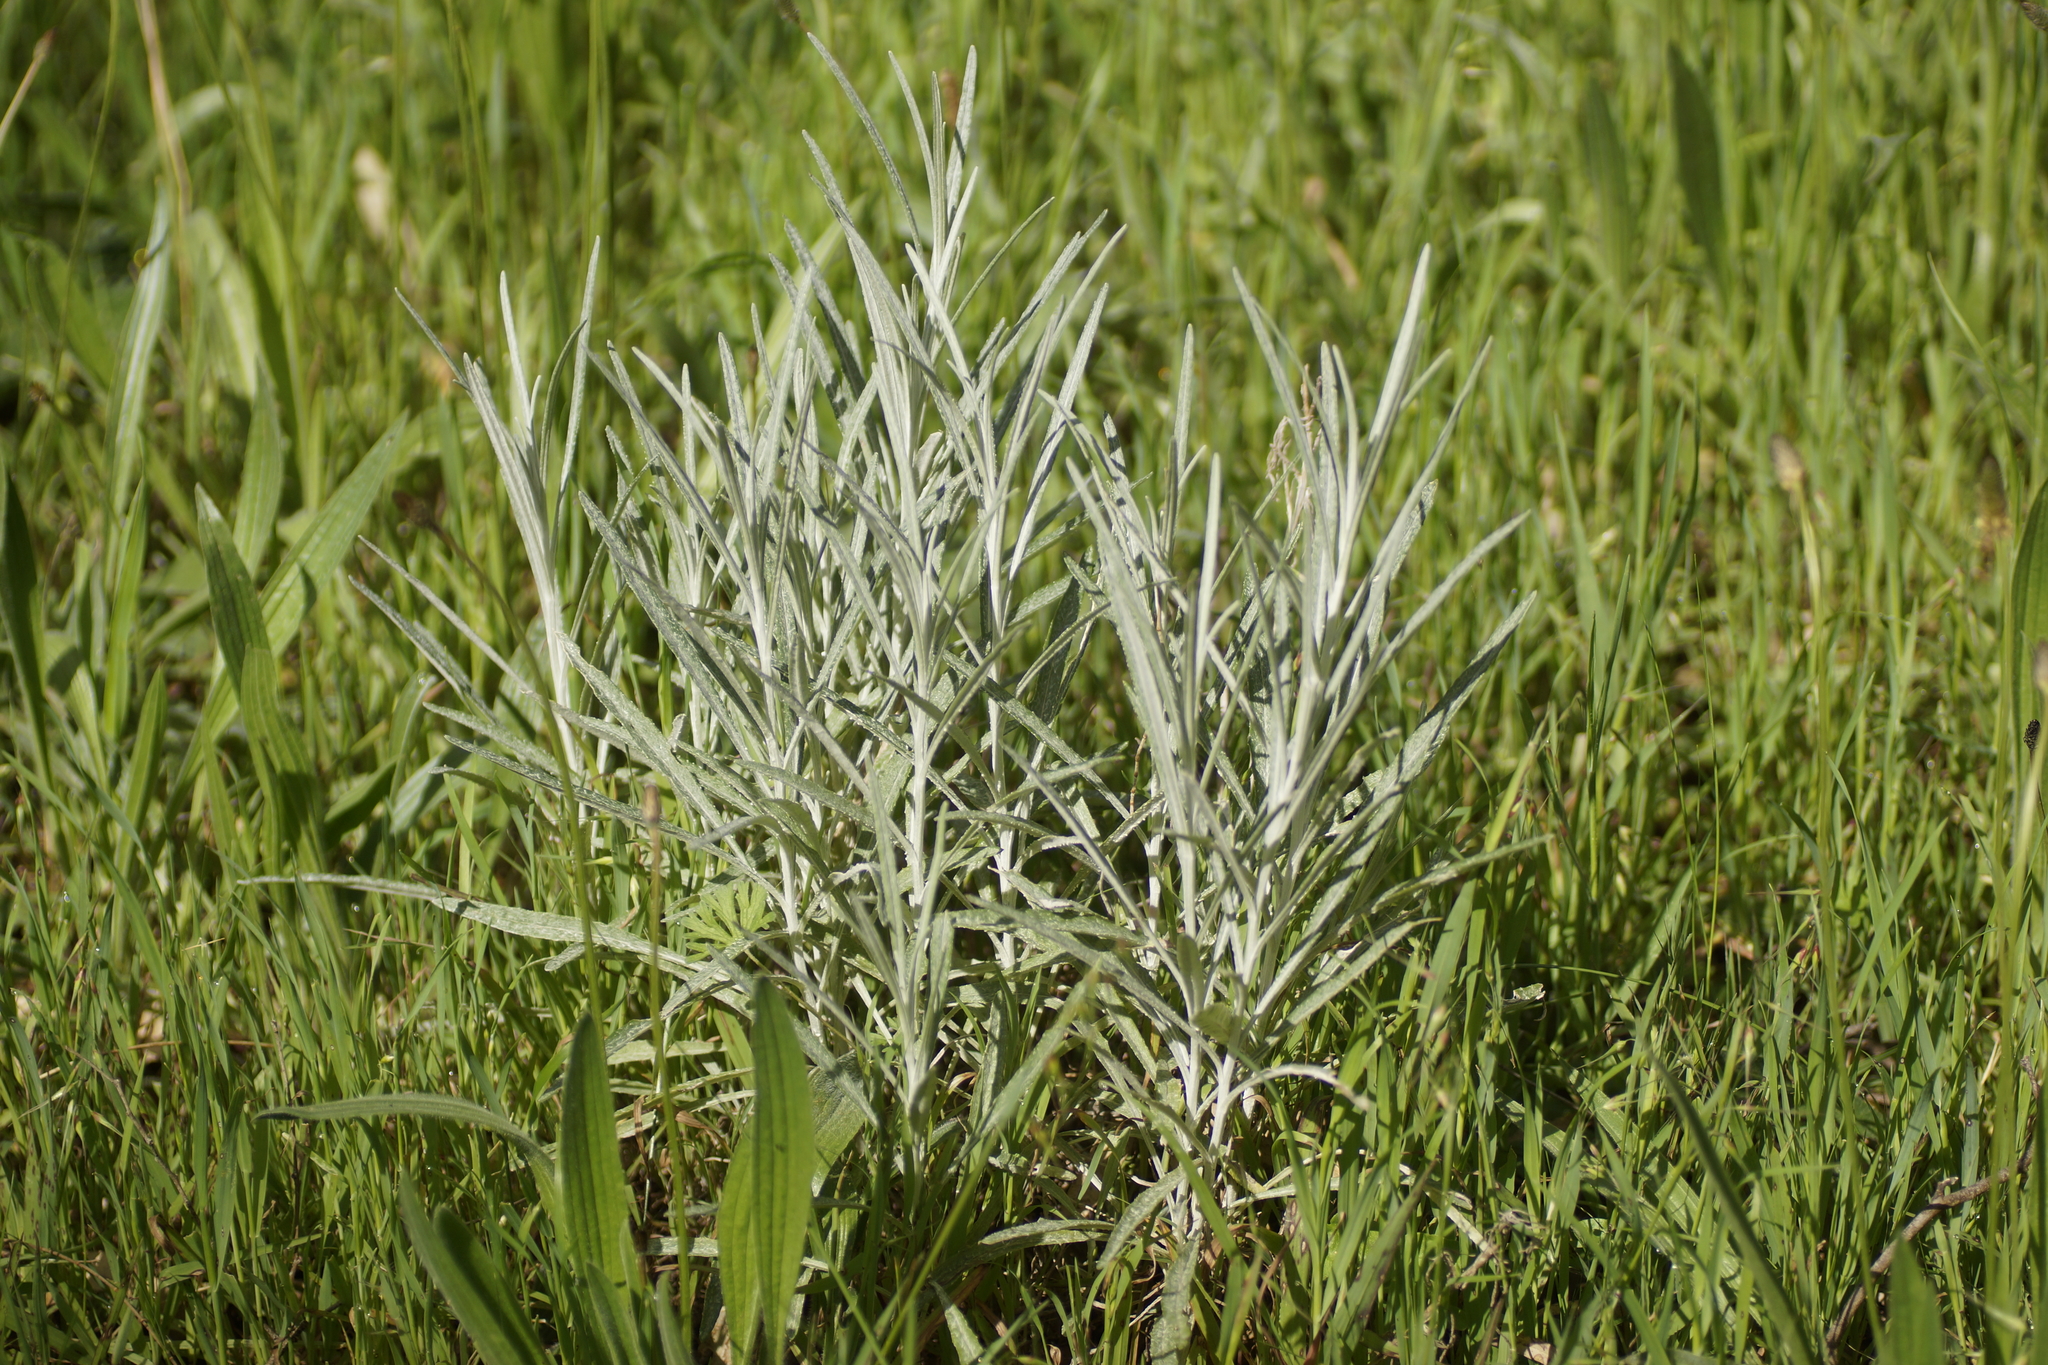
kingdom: Plantae
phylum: Tracheophyta
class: Magnoliopsida
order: Asterales
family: Asteraceae
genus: Senecio
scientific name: Senecio quadridentatus
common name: Cotton fireweed
